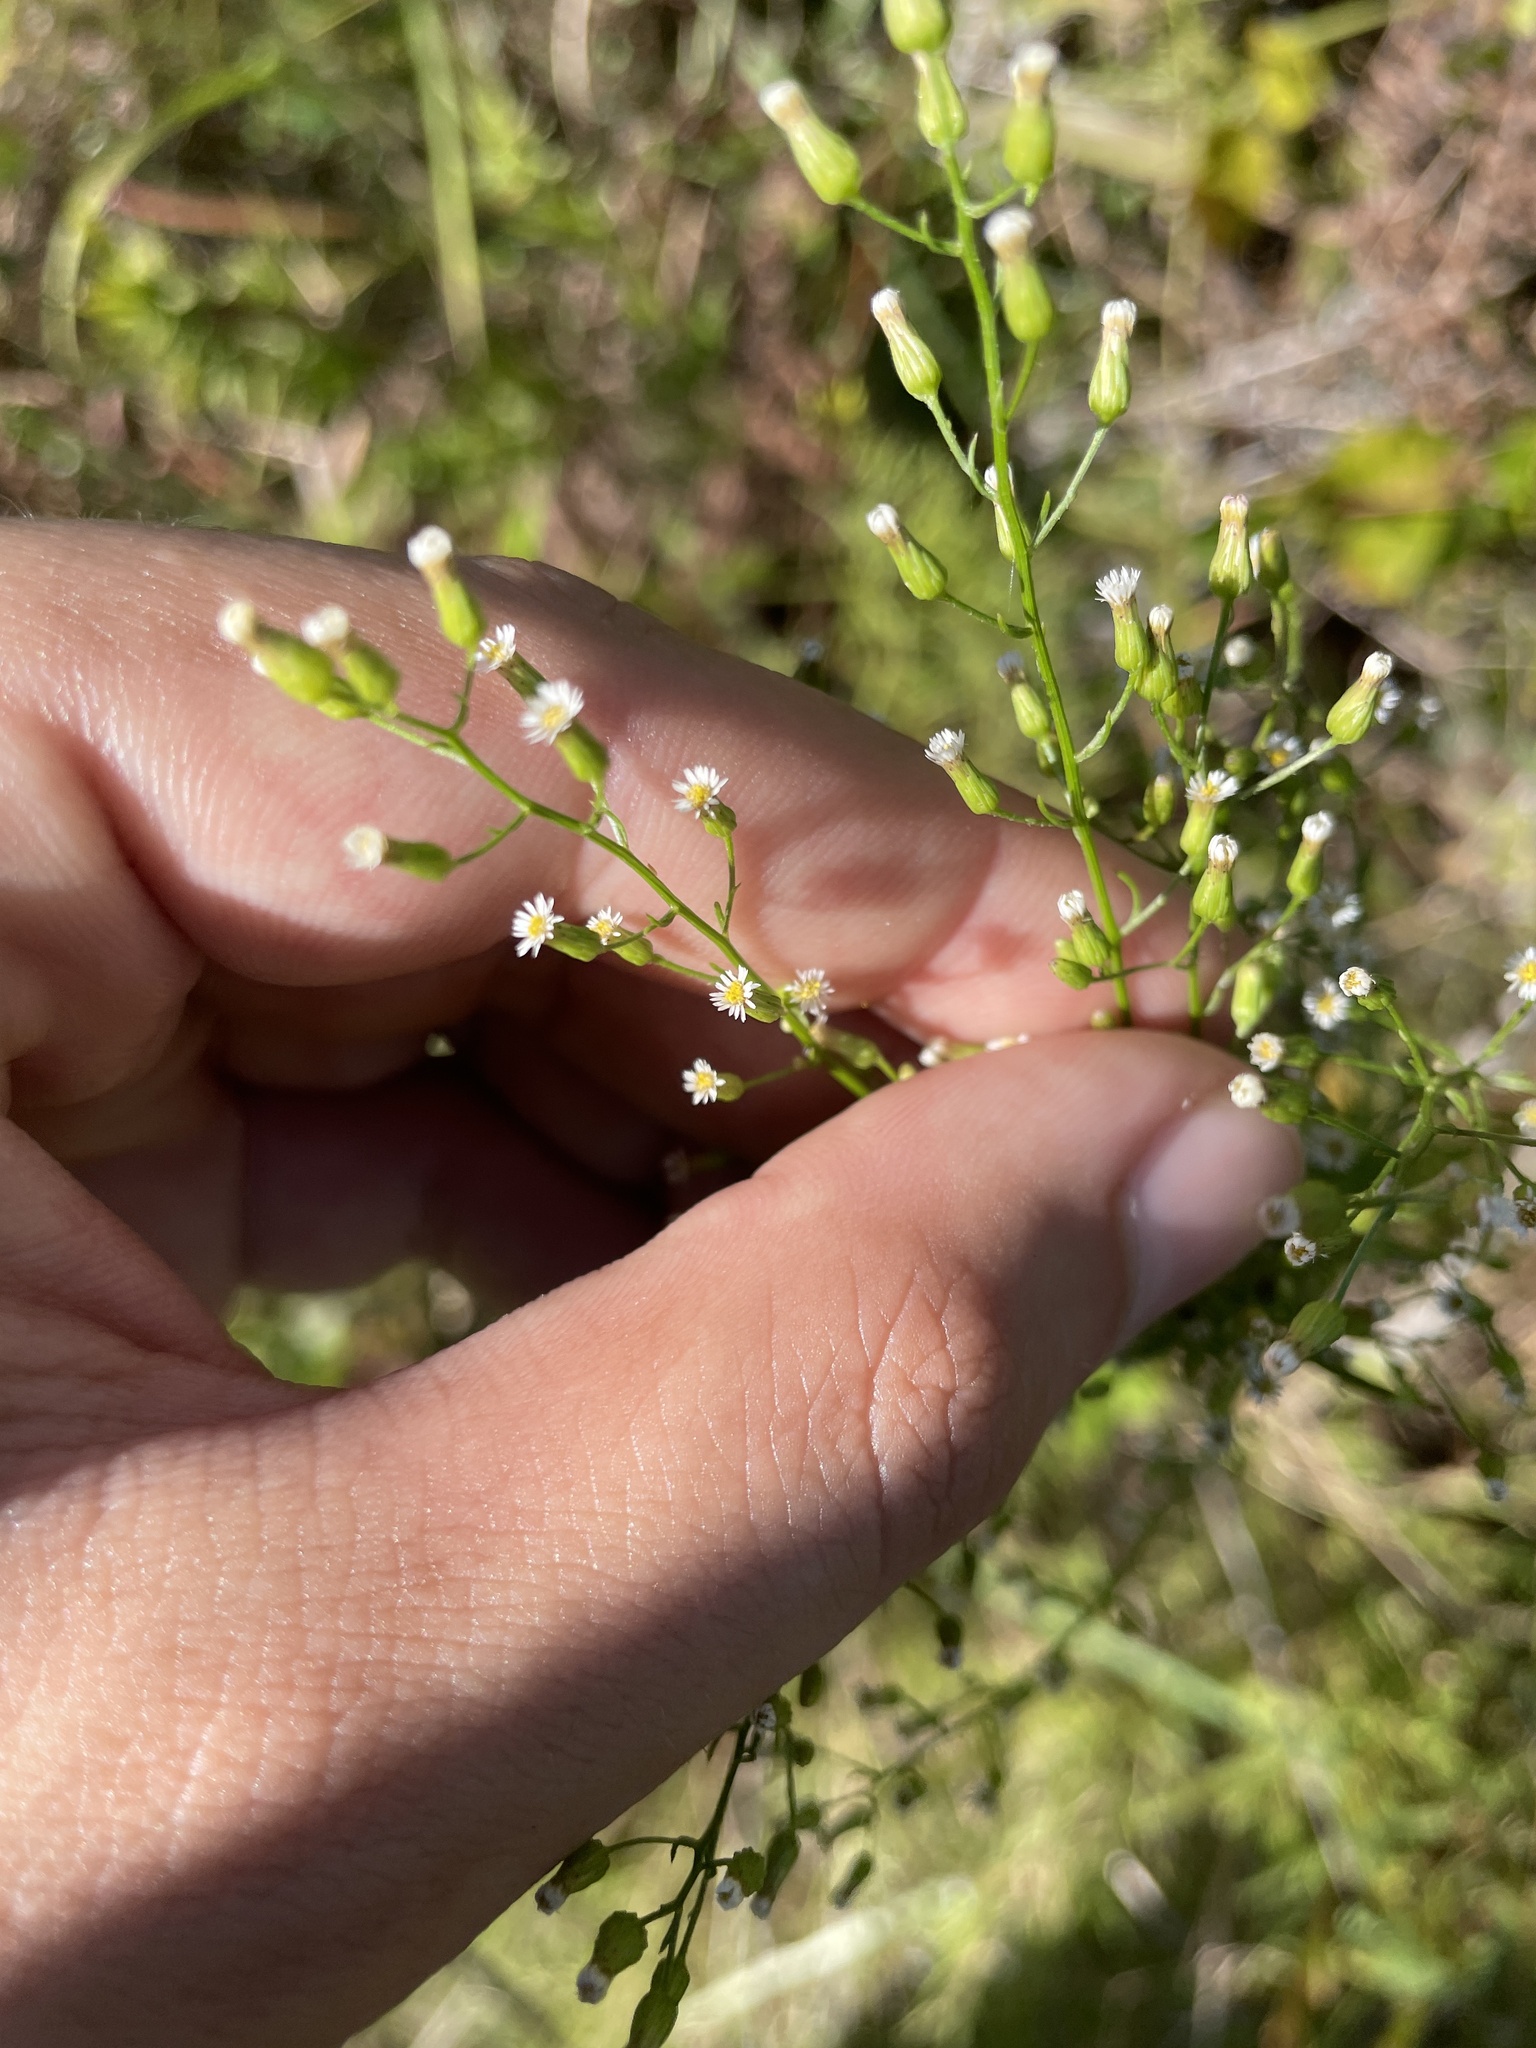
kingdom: Plantae
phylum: Tracheophyta
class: Magnoliopsida
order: Asterales
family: Asteraceae
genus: Erigeron
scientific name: Erigeron canadensis
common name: Canadian fleabane
